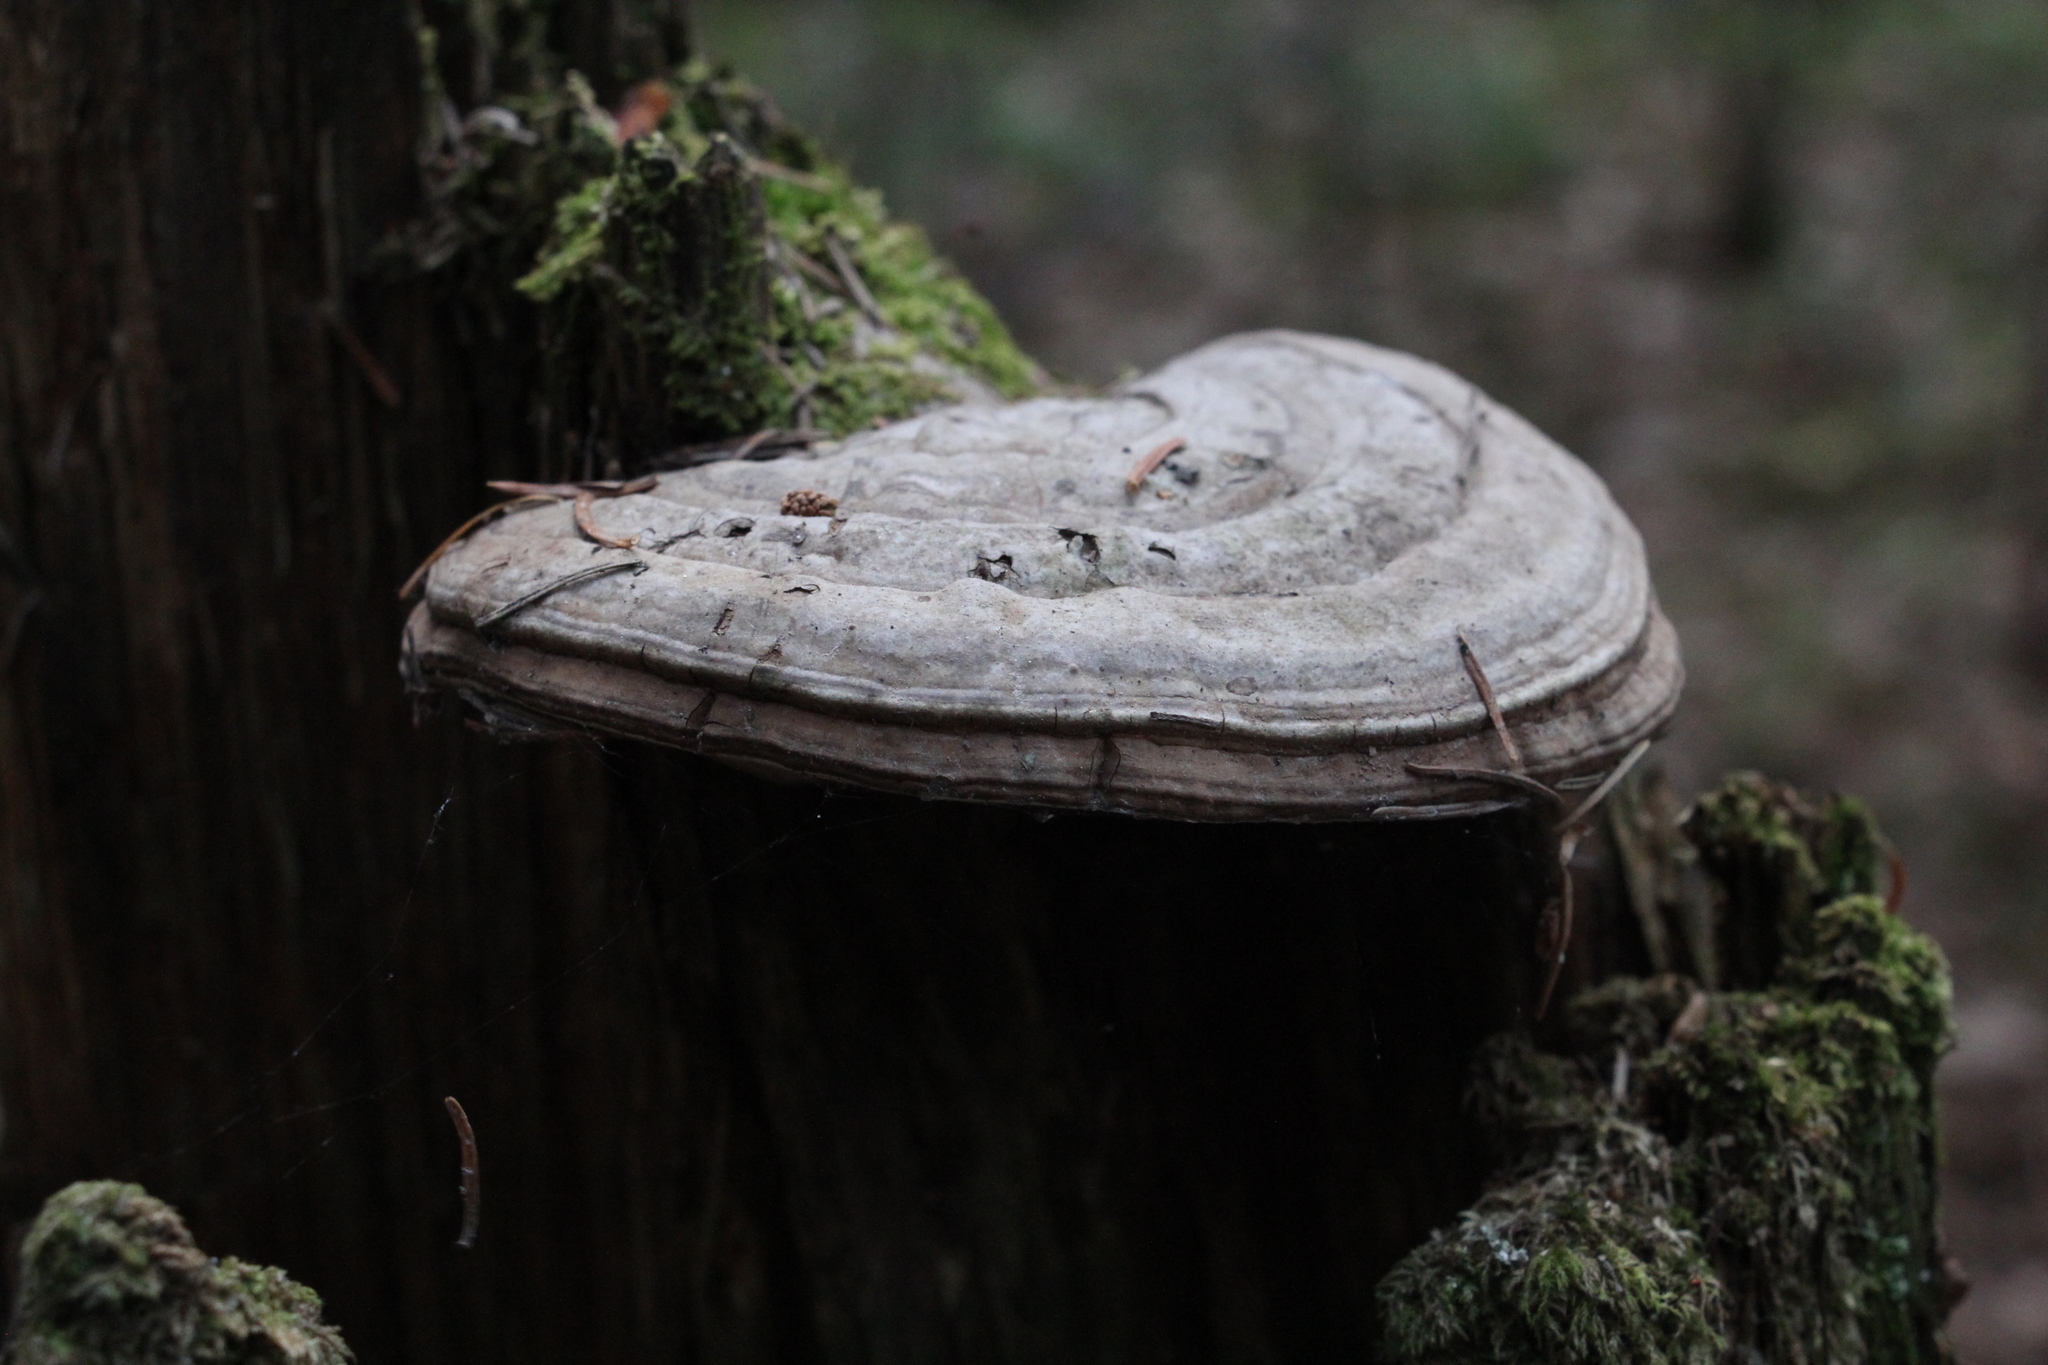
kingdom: Fungi
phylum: Basidiomycota
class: Agaricomycetes
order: Polyporales
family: Polyporaceae
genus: Ganoderma
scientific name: Ganoderma applanatum
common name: Artist's bracket
